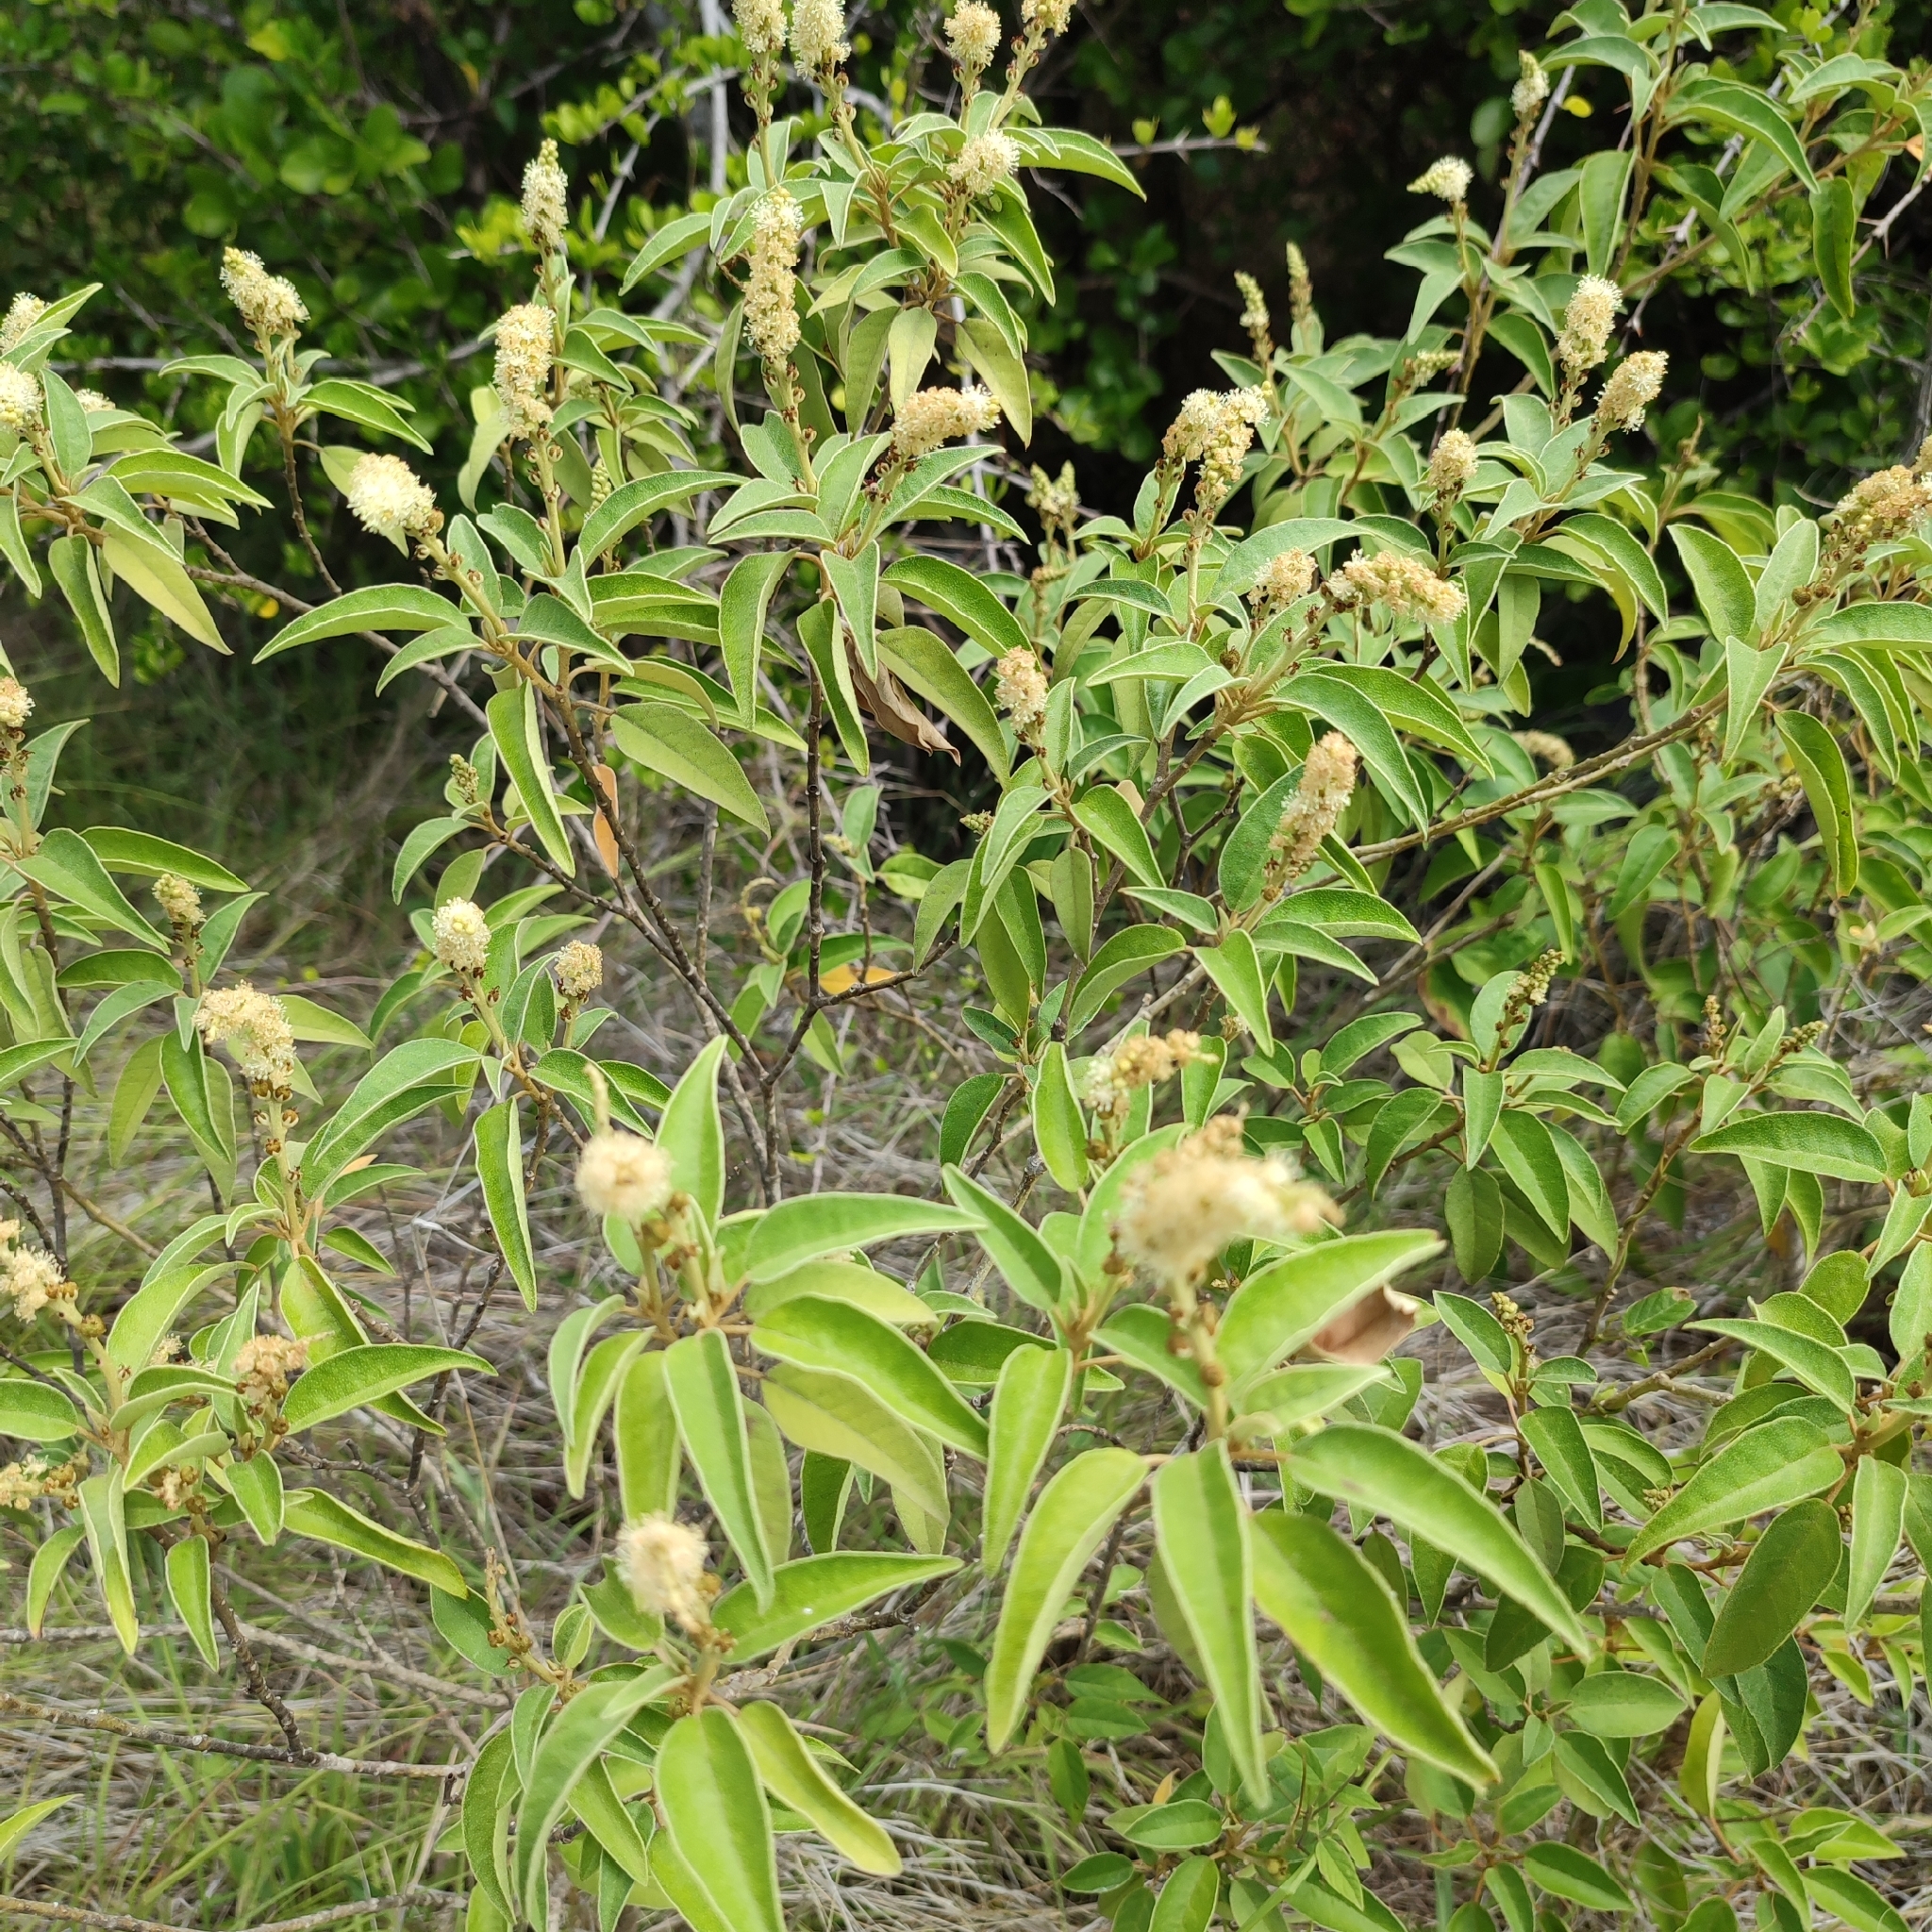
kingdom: Plantae
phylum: Tracheophyta
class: Magnoliopsida
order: Malpighiales
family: Euphorbiaceae
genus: Croton
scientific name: Croton flavens
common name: Yellow balsam
